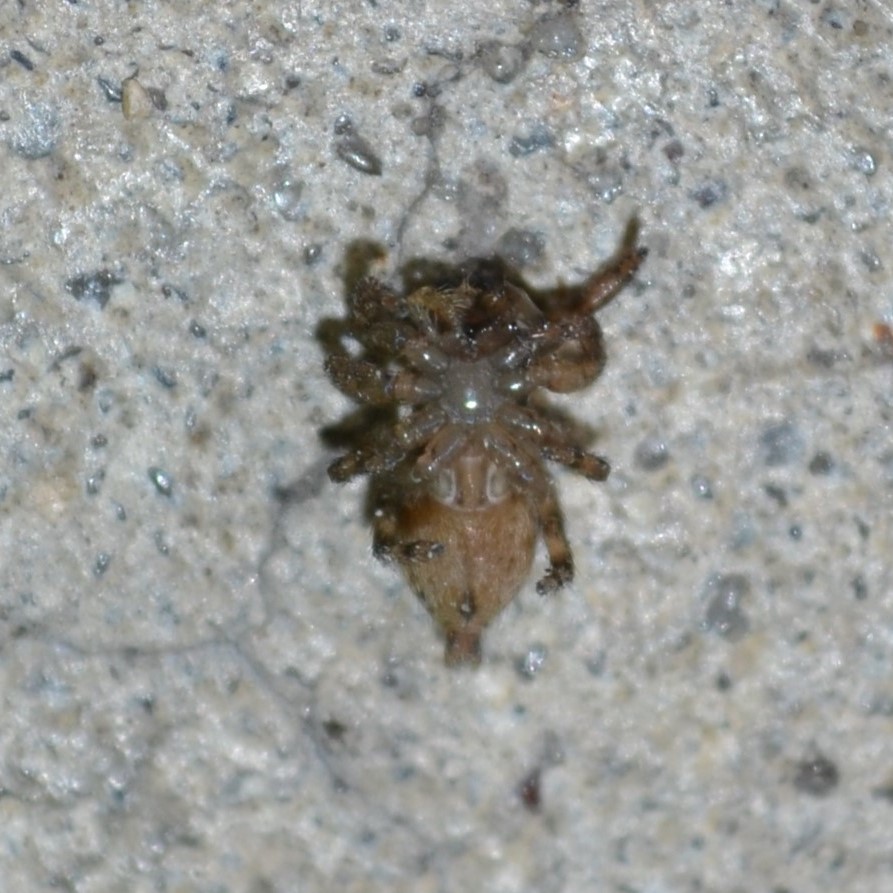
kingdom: Animalia
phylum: Arthropoda
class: Arachnida
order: Araneae
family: Salticidae
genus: Plexippus
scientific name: Plexippus paykulli
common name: Pantropical jumper
